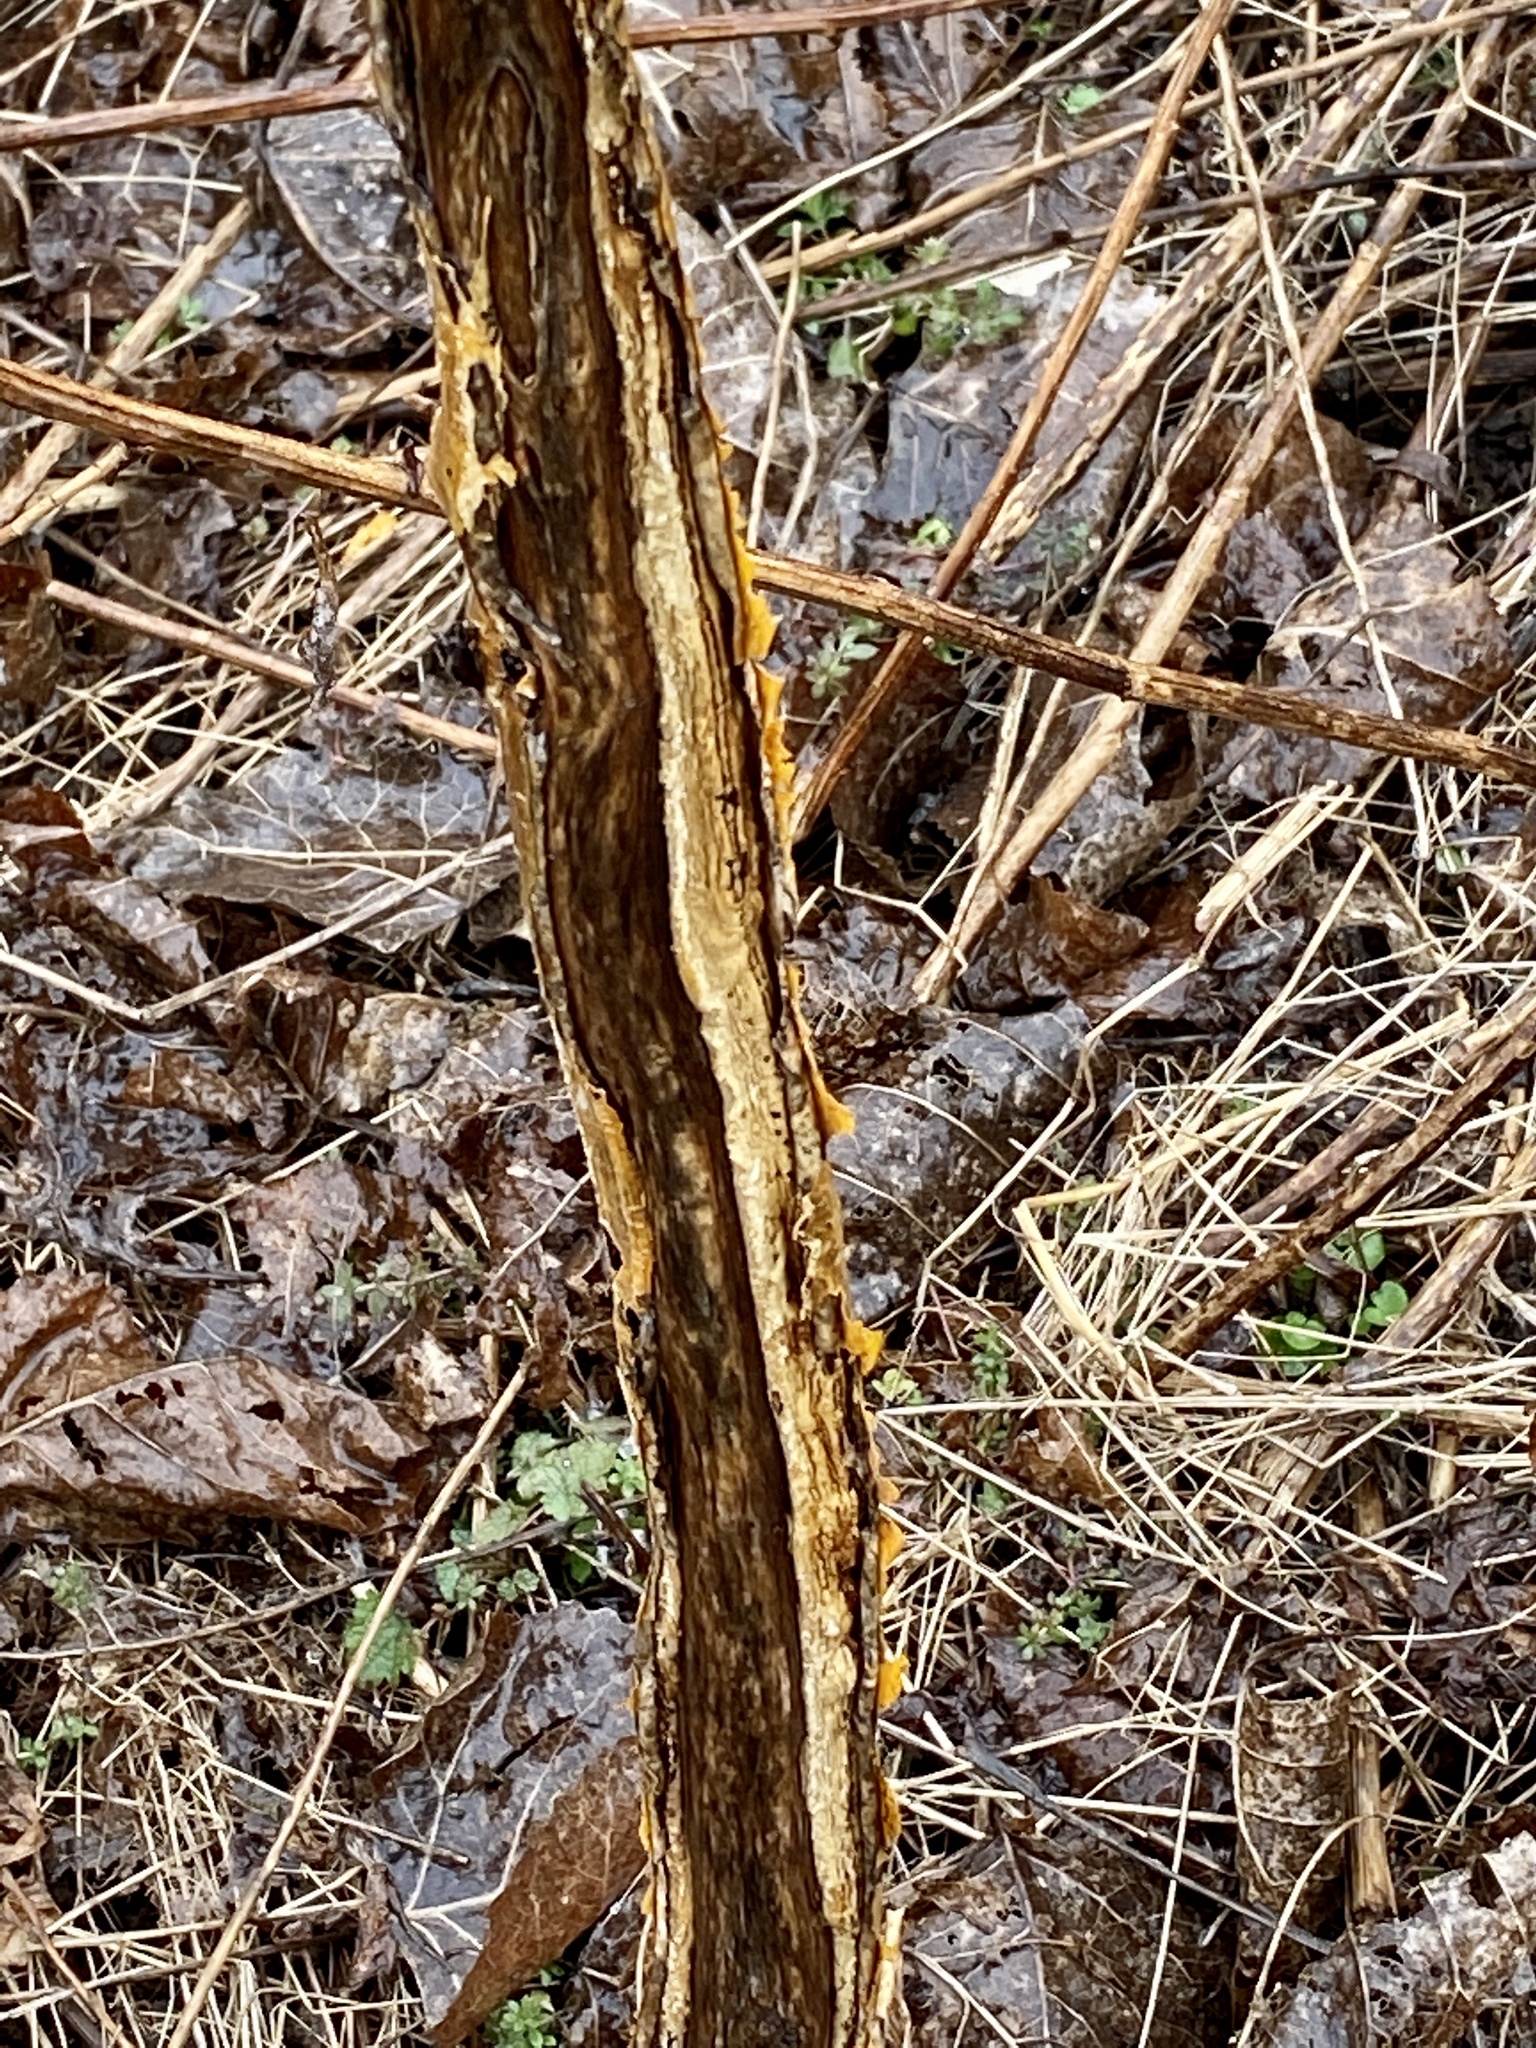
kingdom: Animalia
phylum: Chordata
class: Mammalia
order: Artiodactyla
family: Cervidae
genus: Odocoileus
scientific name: Odocoileus virginianus
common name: White-tailed deer
